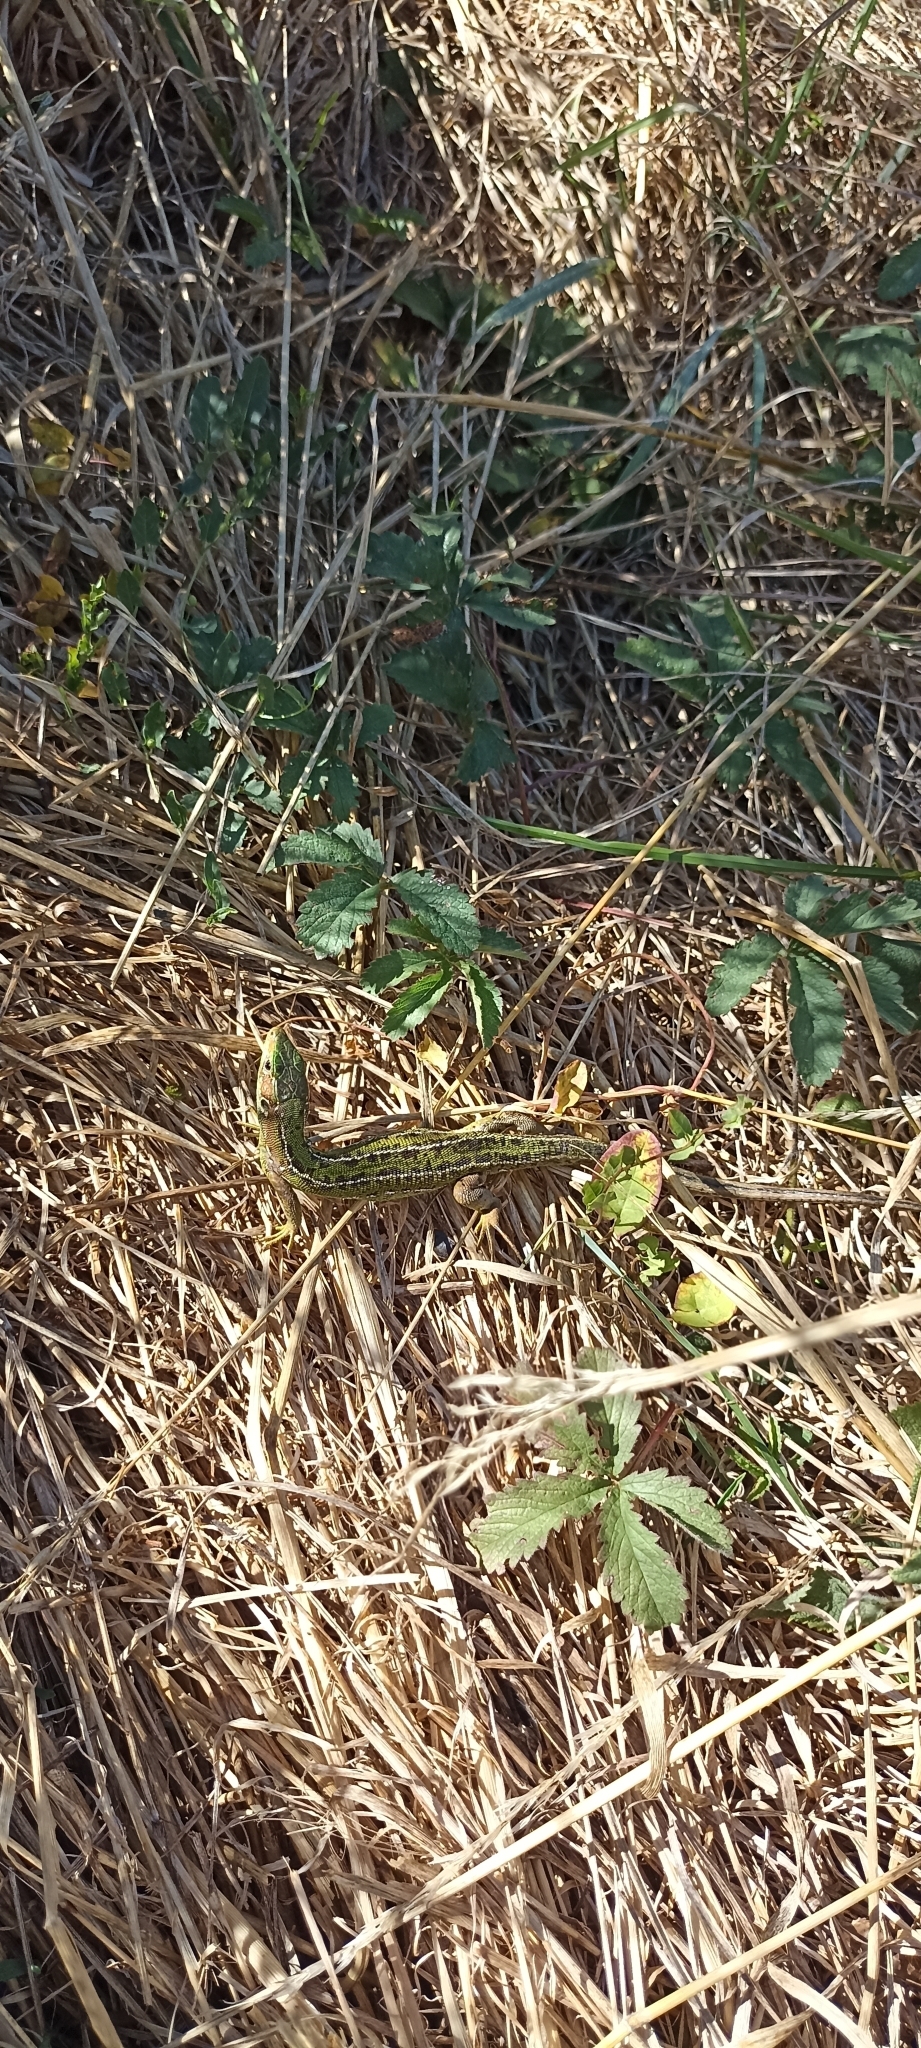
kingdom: Animalia
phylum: Chordata
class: Squamata
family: Lacertidae
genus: Lacerta
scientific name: Lacerta bilineata
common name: Western green lizard
